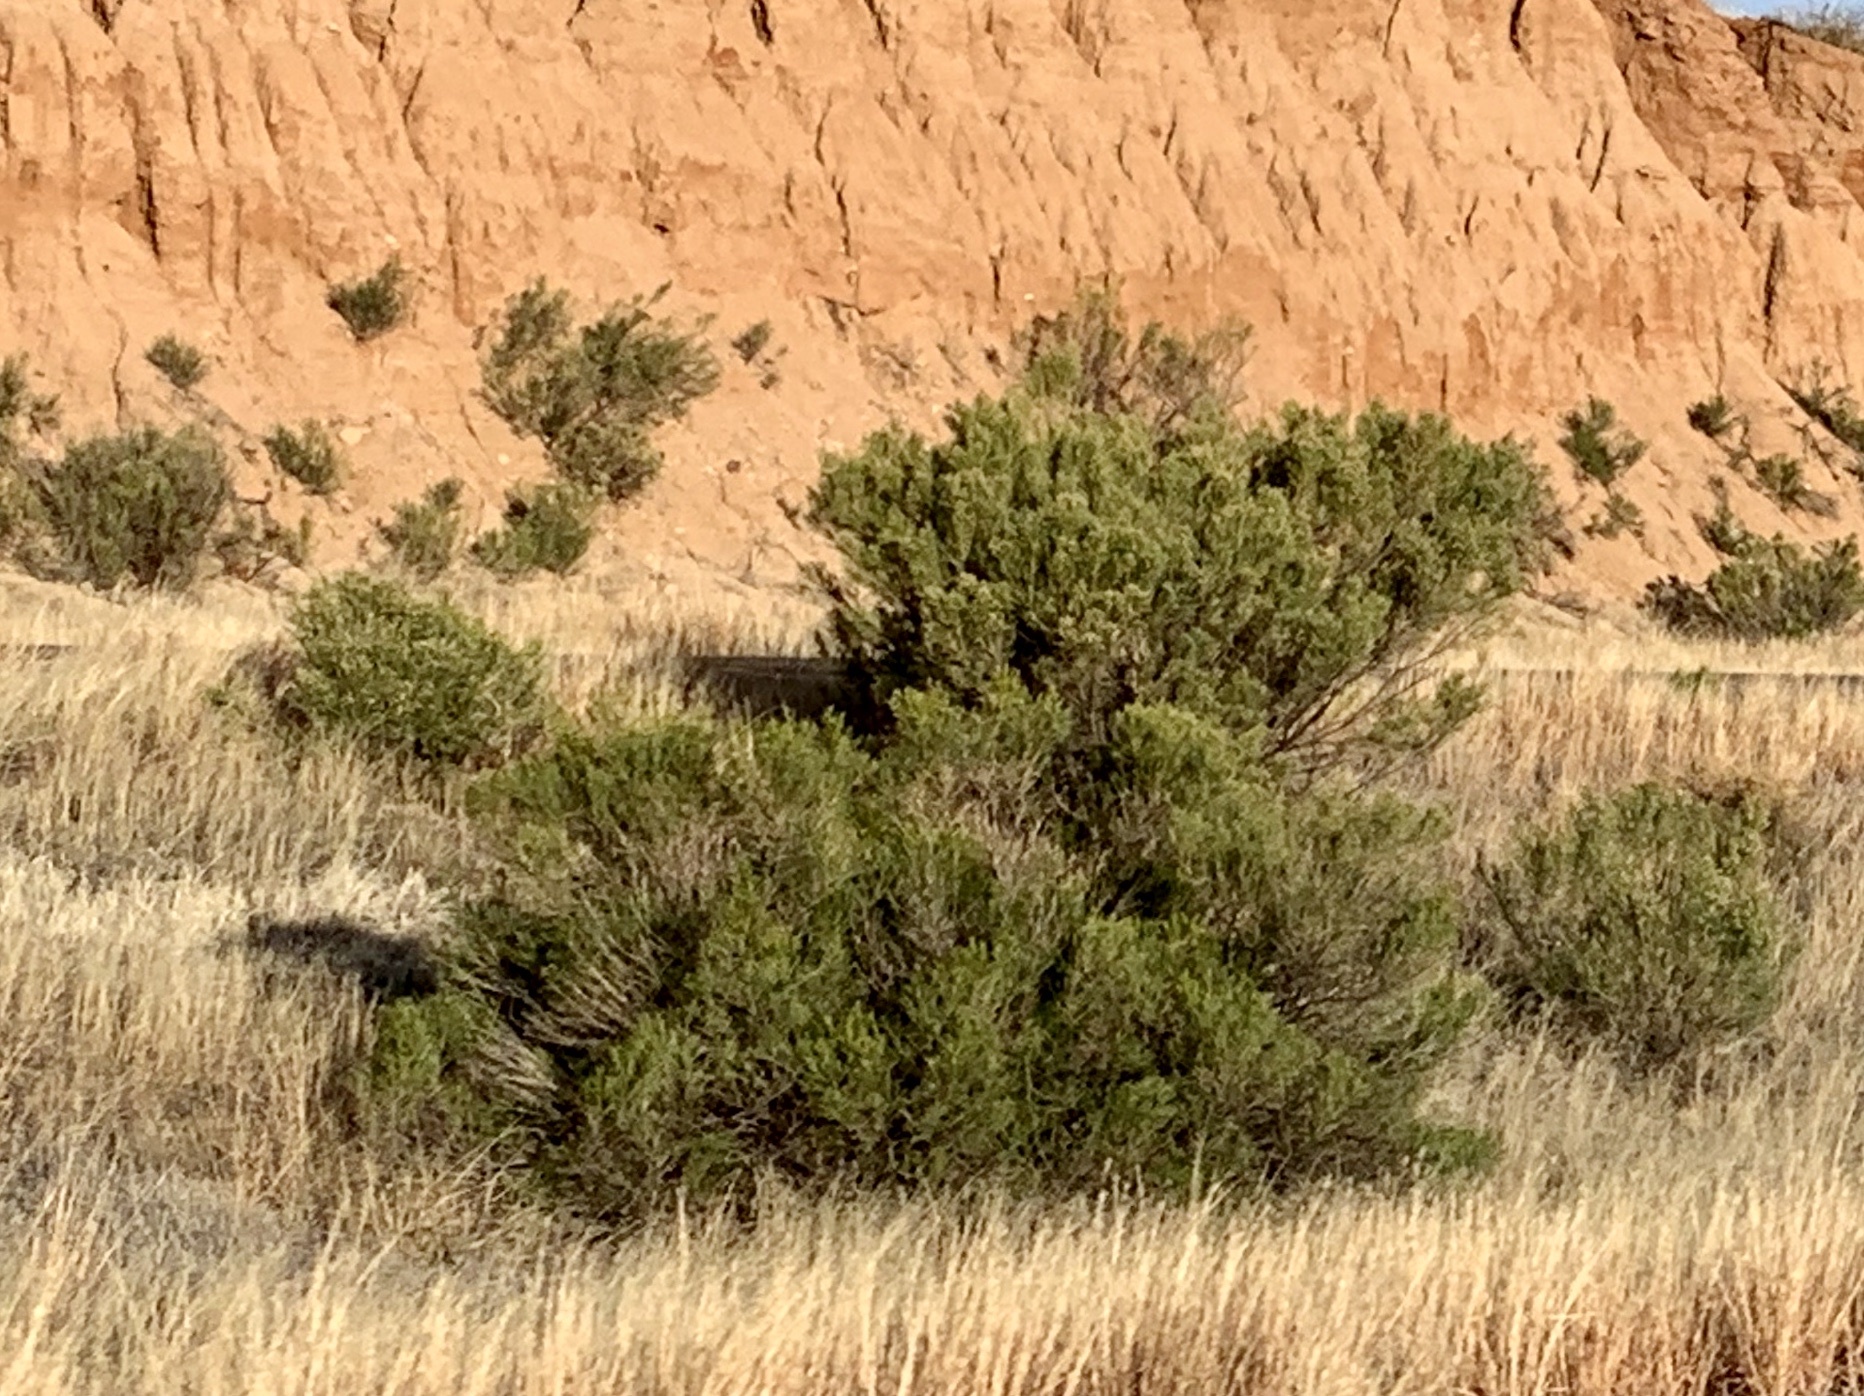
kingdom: Plantae
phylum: Tracheophyta
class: Magnoliopsida
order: Zygophyllales
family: Zygophyllaceae
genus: Larrea
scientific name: Larrea tridentata
